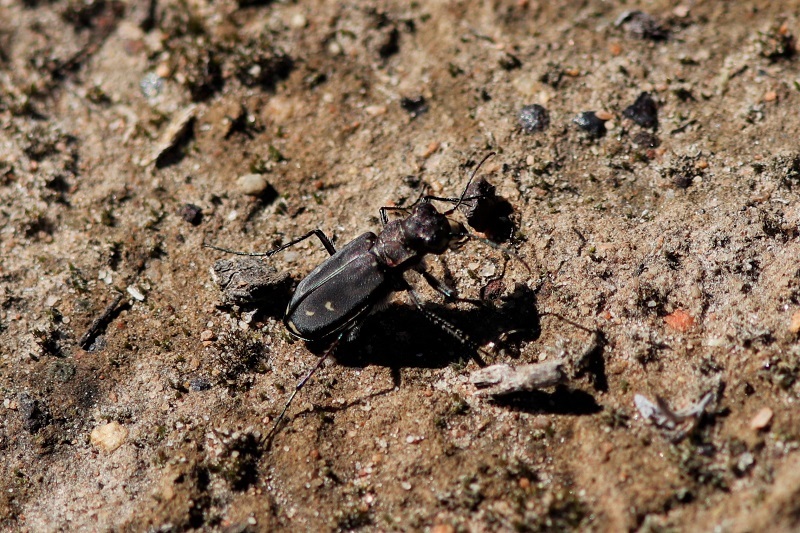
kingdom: Animalia
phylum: Arthropoda
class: Insecta
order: Coleoptera
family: Carabidae
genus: Cicindela
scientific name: Cicindela lurida
